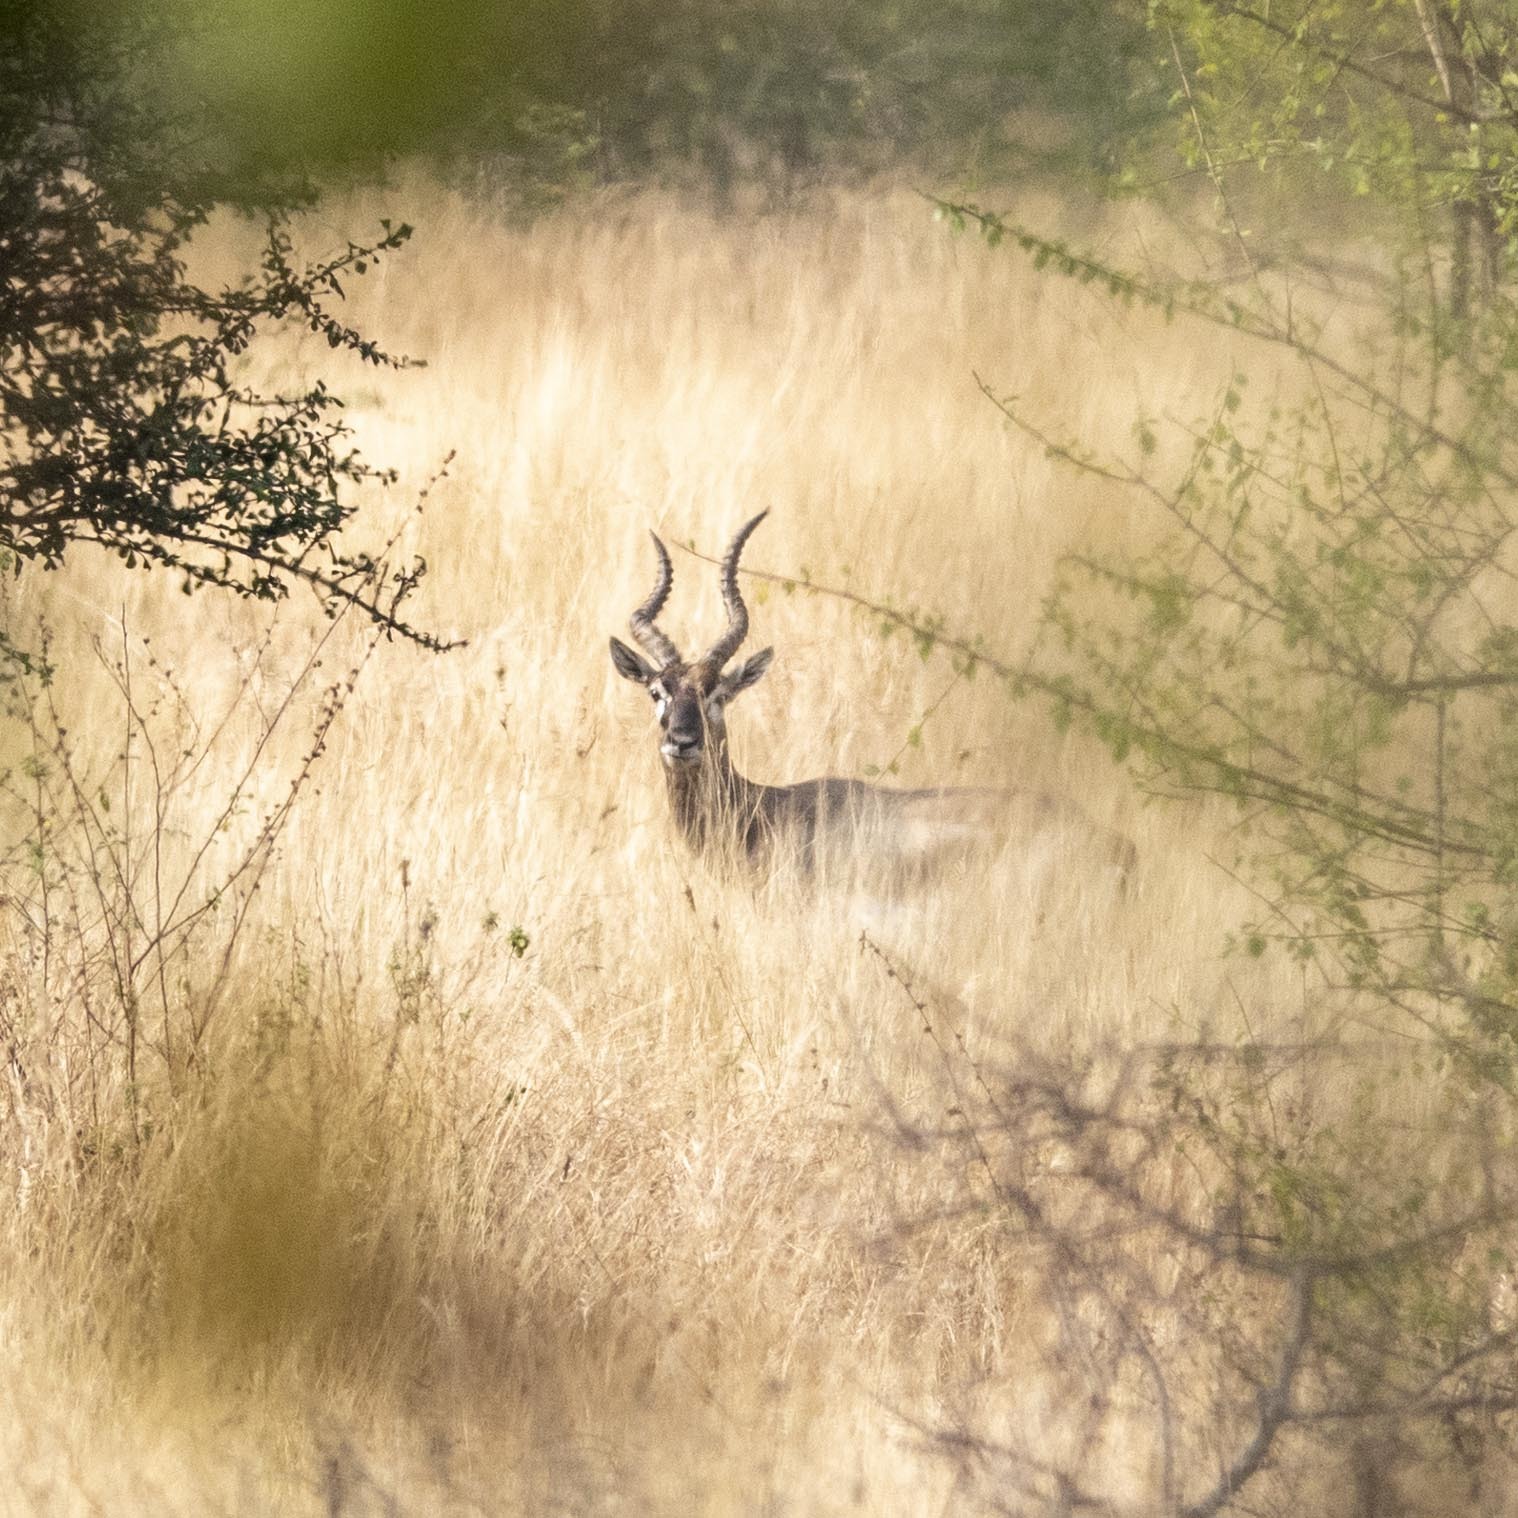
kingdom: Animalia
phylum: Chordata
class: Mammalia
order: Artiodactyla
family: Bovidae
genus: Antilope
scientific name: Antilope cervicapra
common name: Blackbuck
